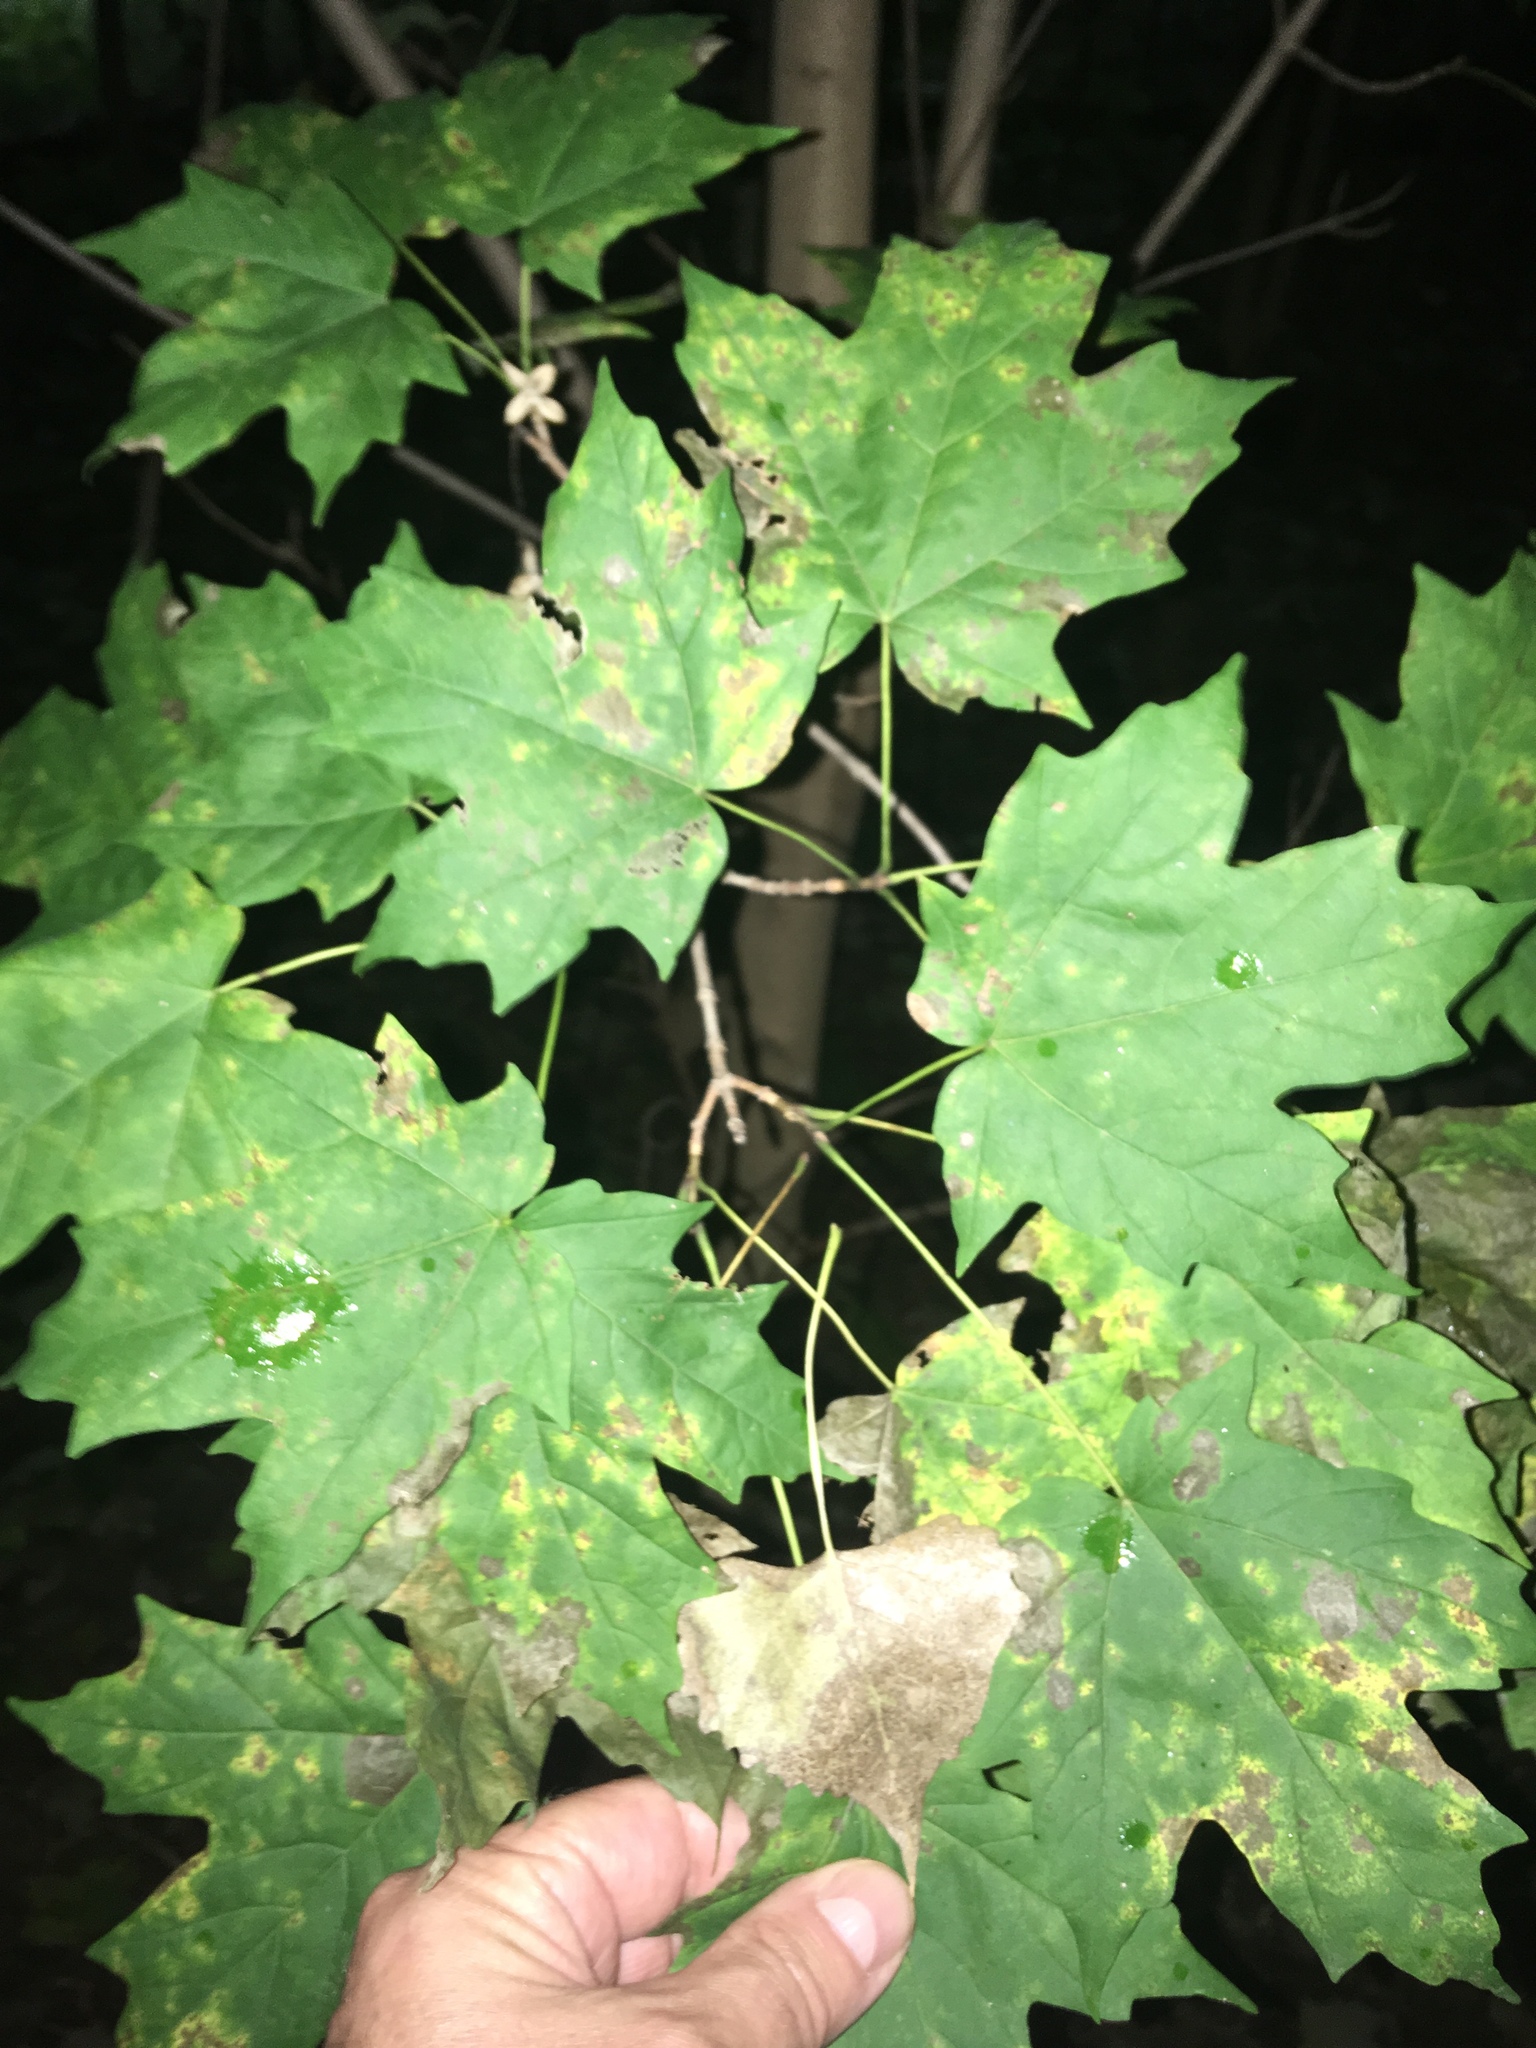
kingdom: Plantae
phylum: Tracheophyta
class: Magnoliopsida
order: Sapindales
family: Sapindaceae
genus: Acer
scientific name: Acer saccharum
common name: Sugar maple
